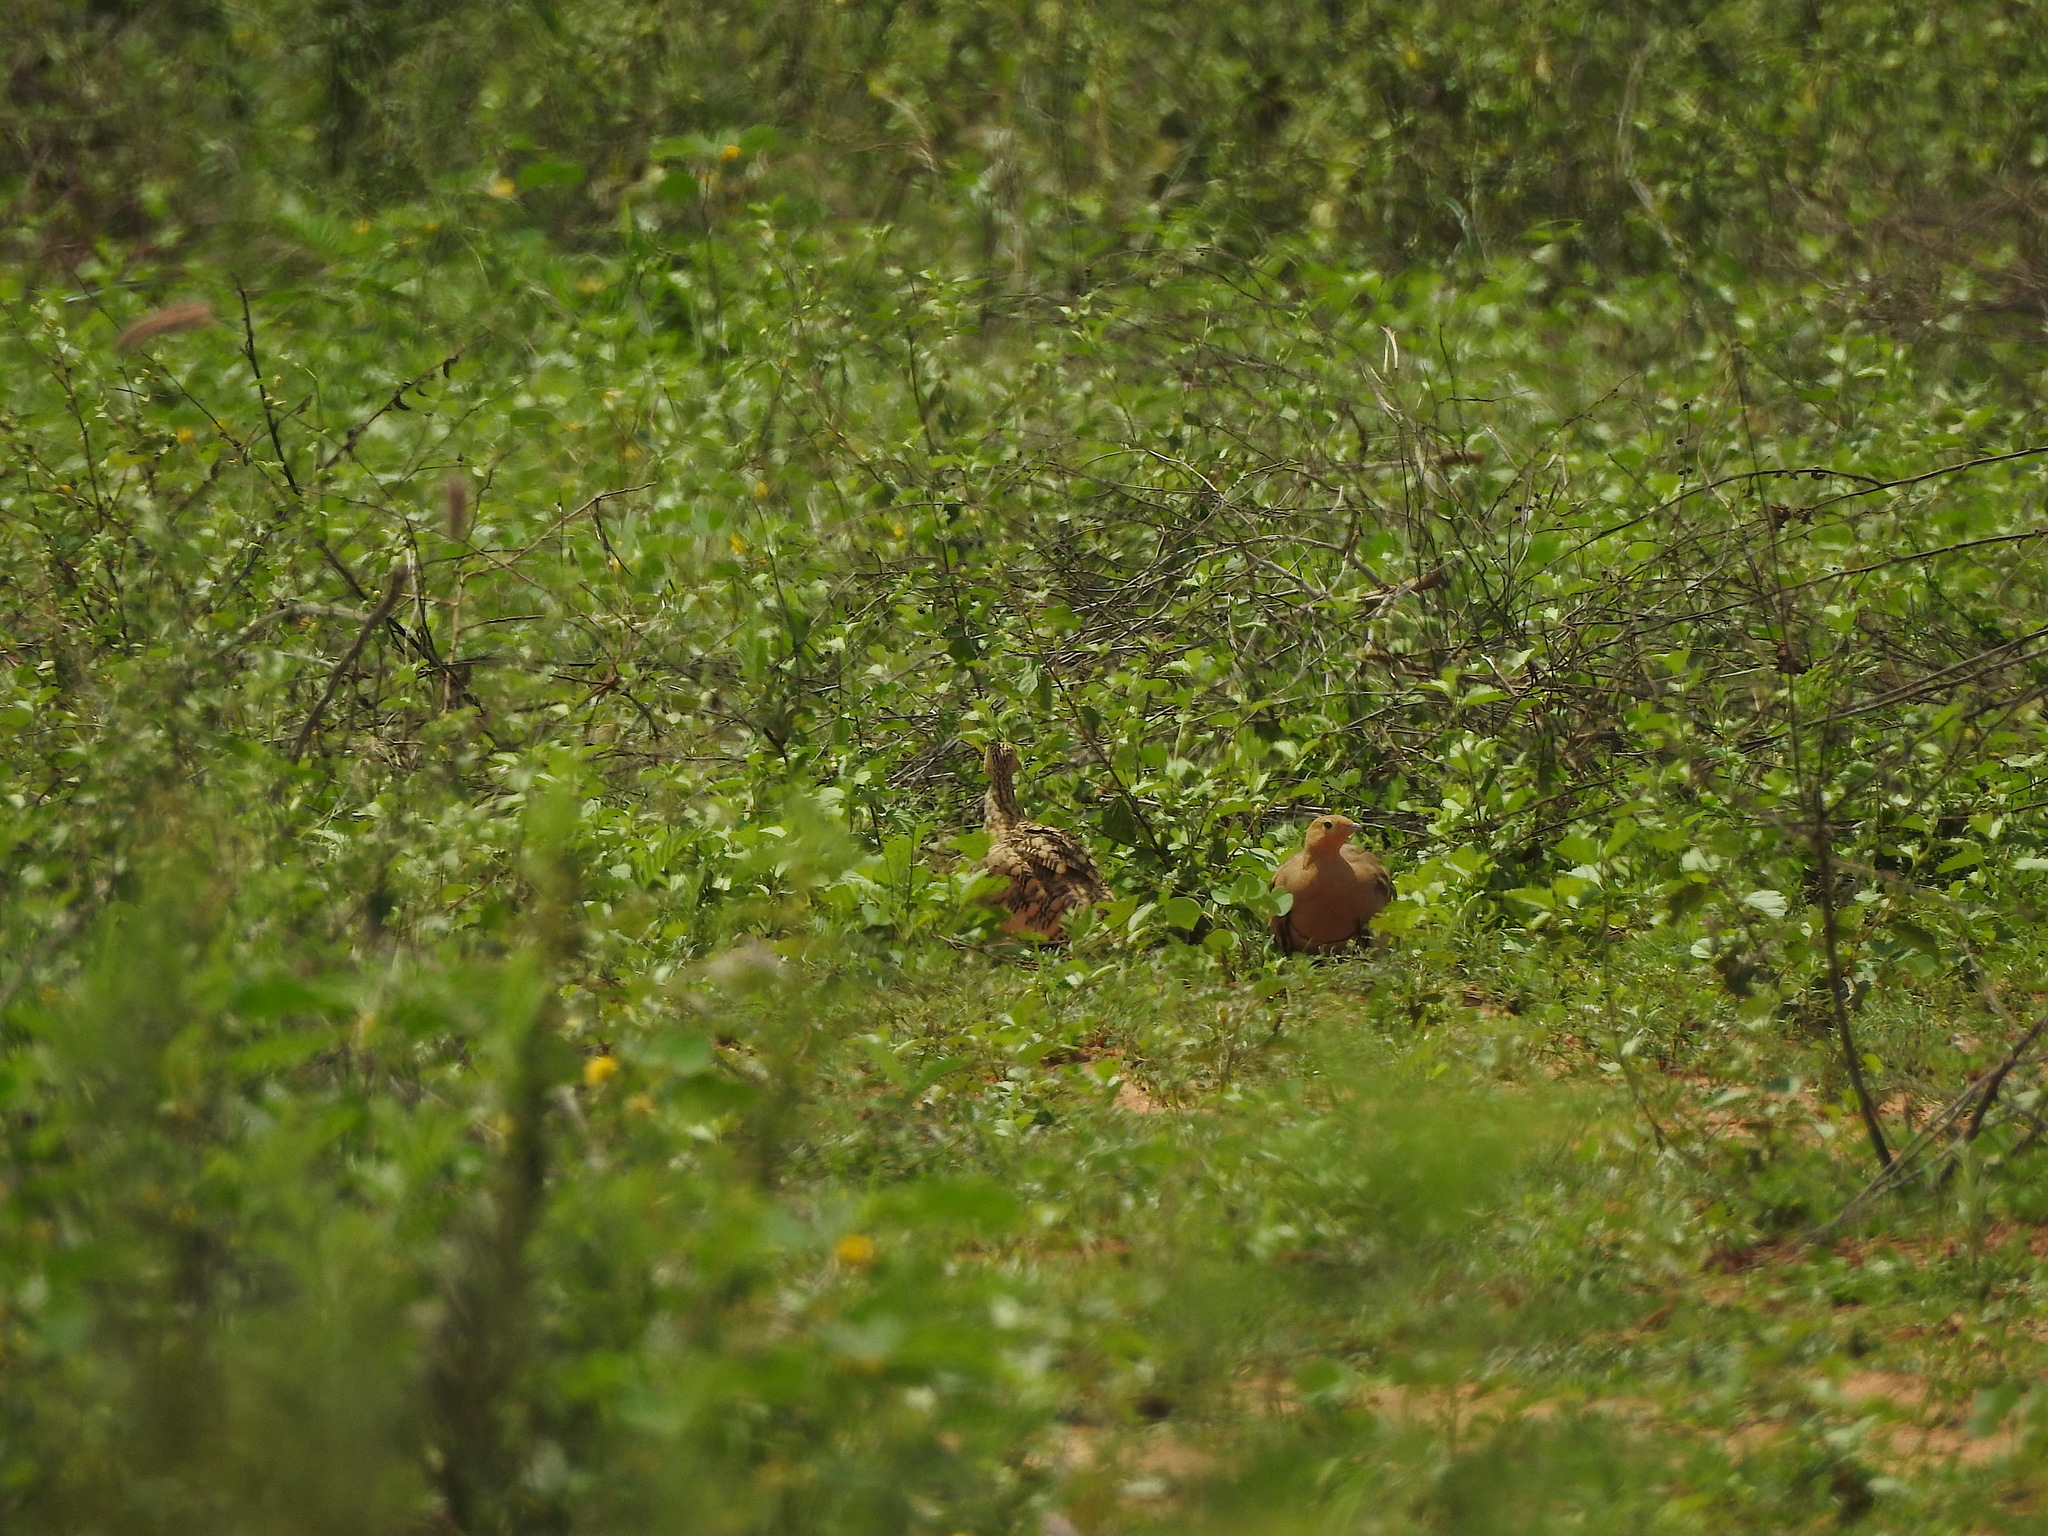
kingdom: Animalia
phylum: Chordata
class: Aves
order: Pteroclidiformes
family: Pteroclididae
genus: Pterocles
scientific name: Pterocles exustus
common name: Chestnut-bellied sandgrouse
